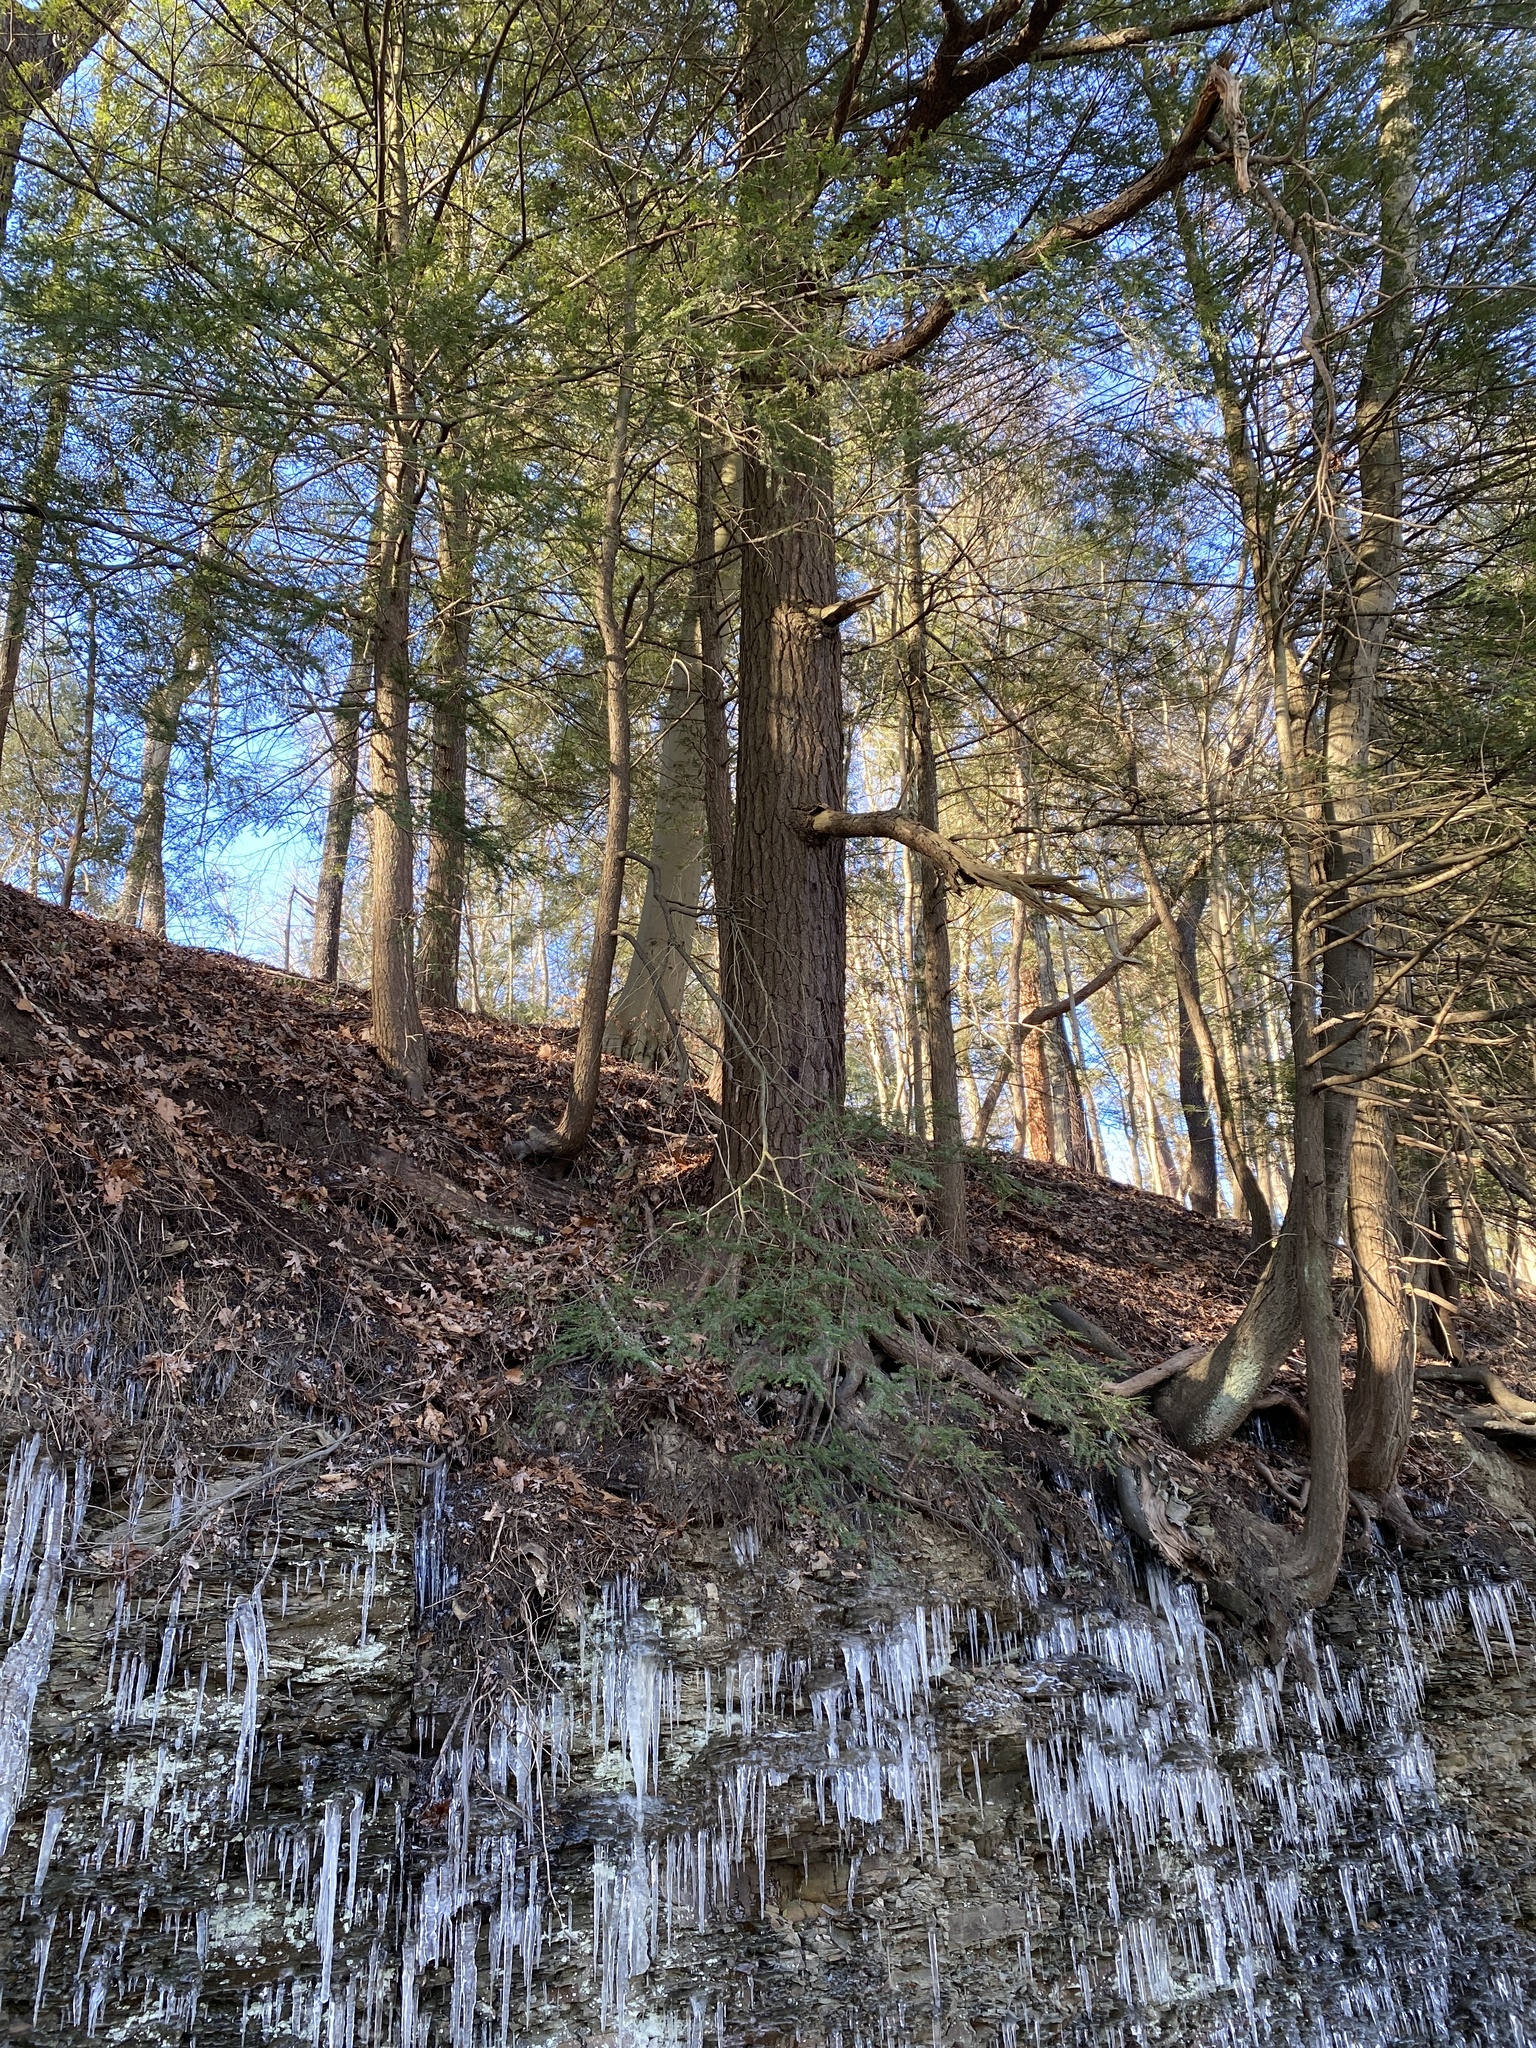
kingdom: Plantae
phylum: Tracheophyta
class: Pinopsida
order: Pinales
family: Pinaceae
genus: Tsuga
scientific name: Tsuga canadensis
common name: Eastern hemlock
